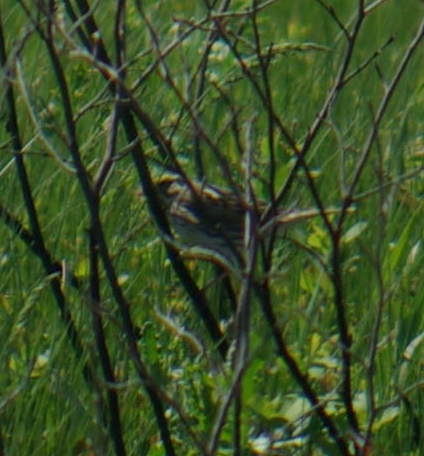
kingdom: Animalia
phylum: Chordata
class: Aves
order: Passeriformes
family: Passerellidae
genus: Passerculus
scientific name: Passerculus sandwichensis
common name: Savannah sparrow
